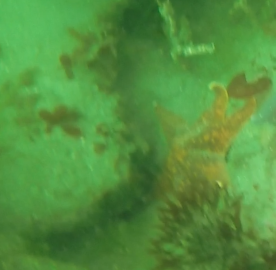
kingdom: Animalia
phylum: Echinodermata
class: Asteroidea
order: Valvatida
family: Asterinidae
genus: Patiria
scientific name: Patiria miniata
